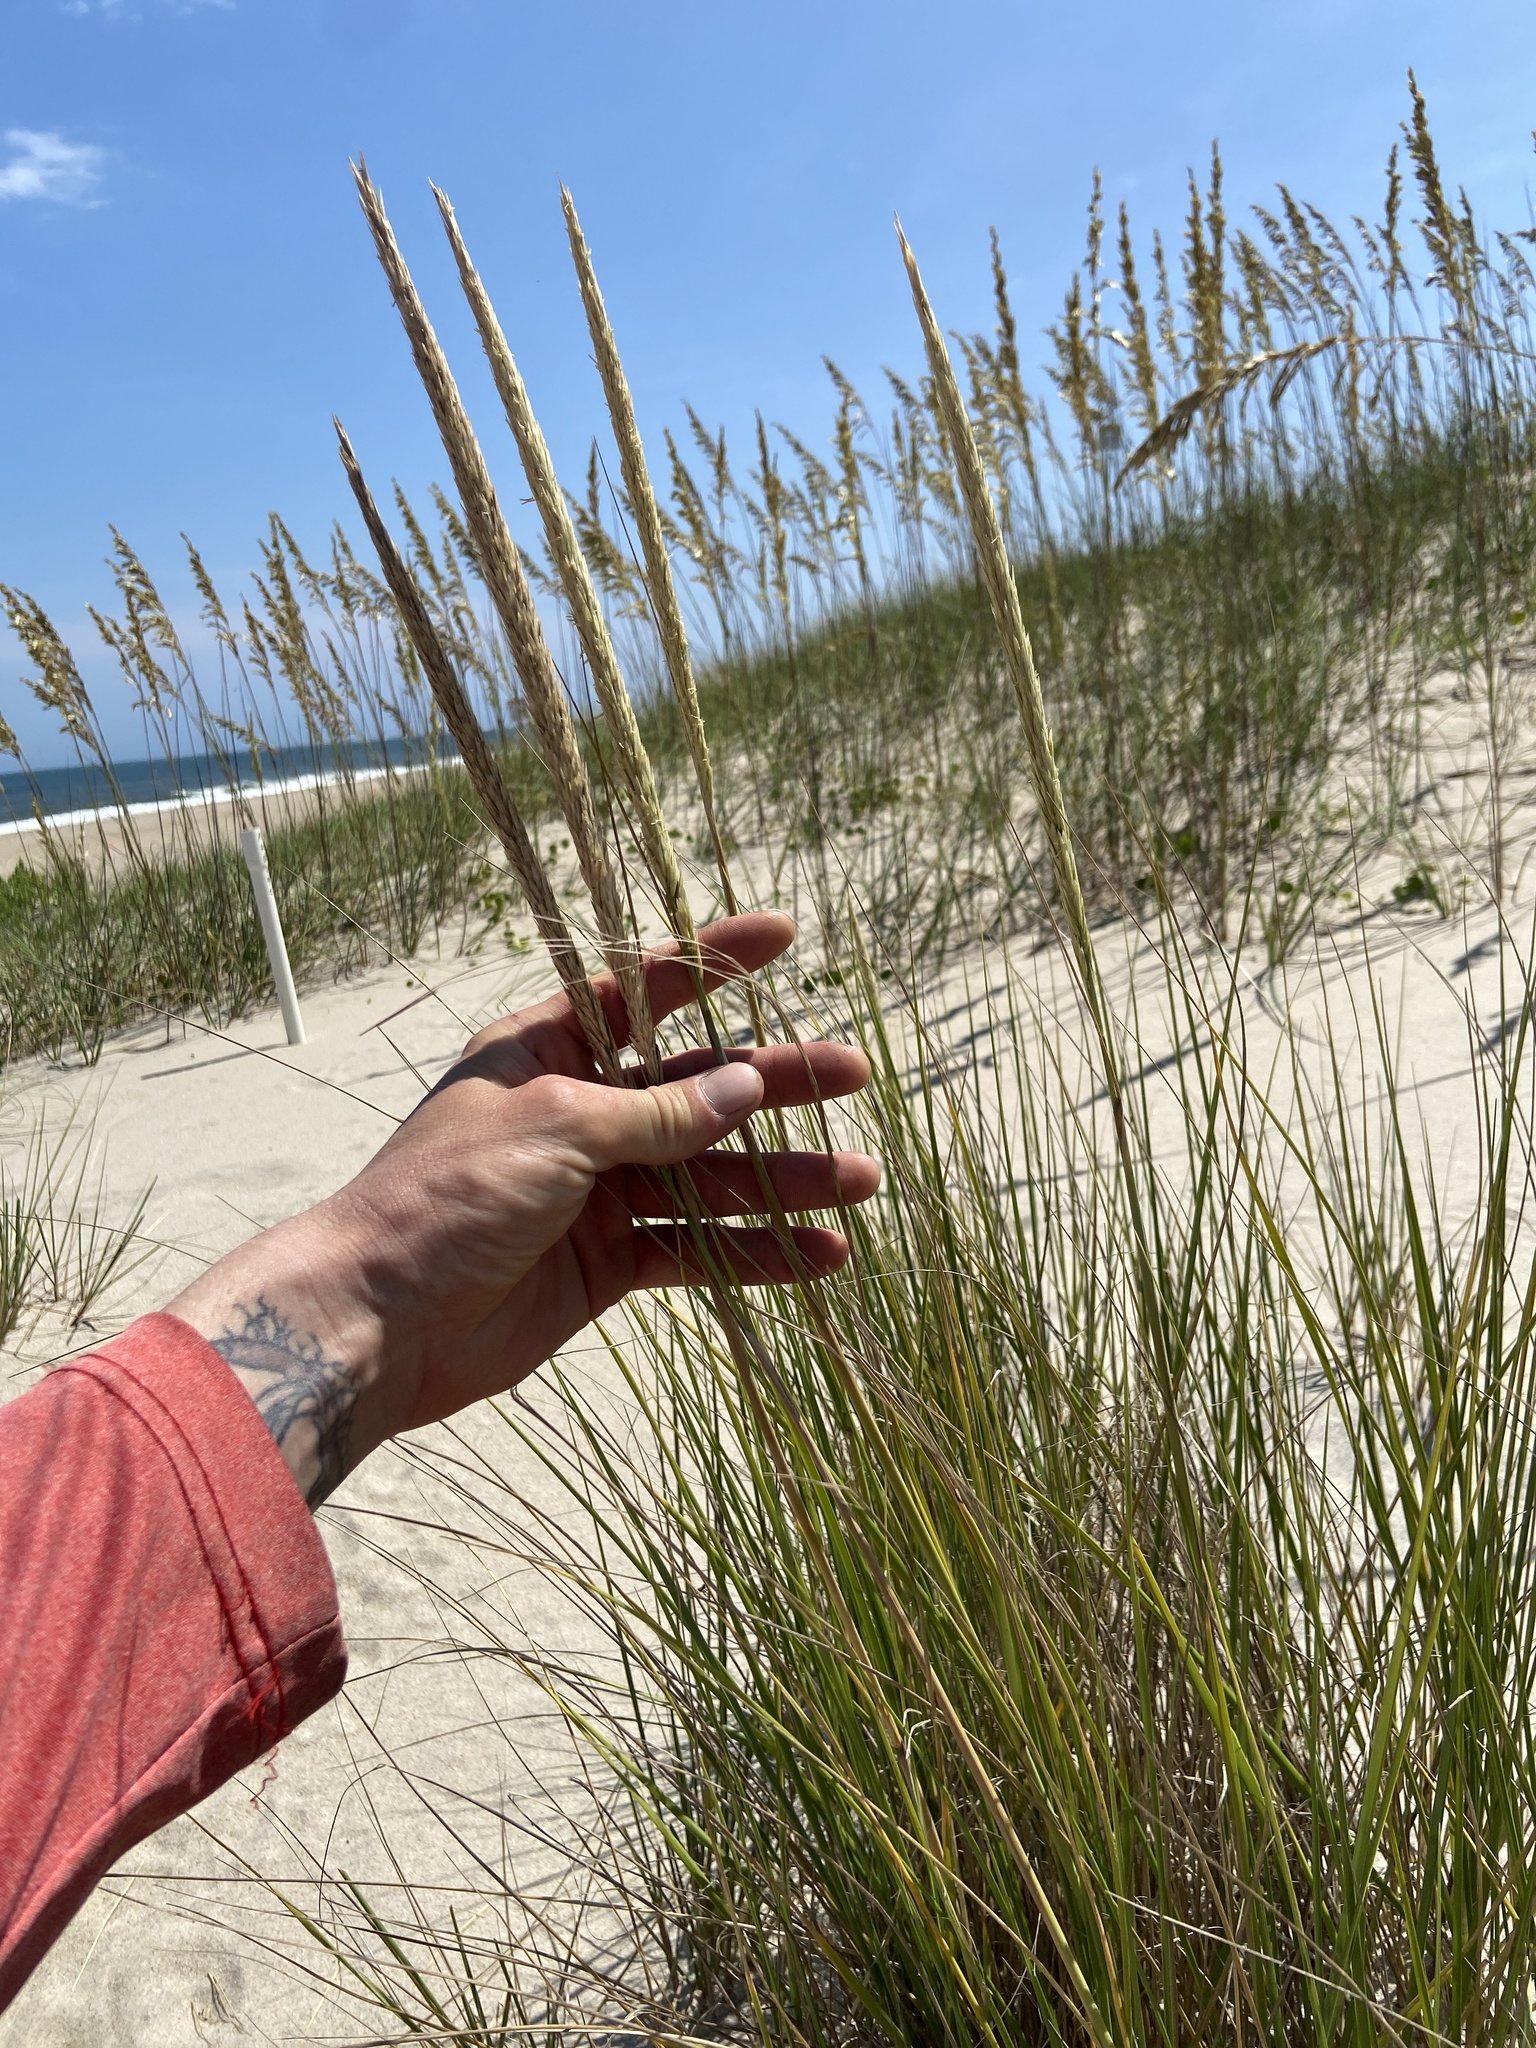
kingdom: Plantae
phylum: Tracheophyta
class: Liliopsida
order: Poales
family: Poaceae
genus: Calamagrostis
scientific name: Calamagrostis breviligulata
